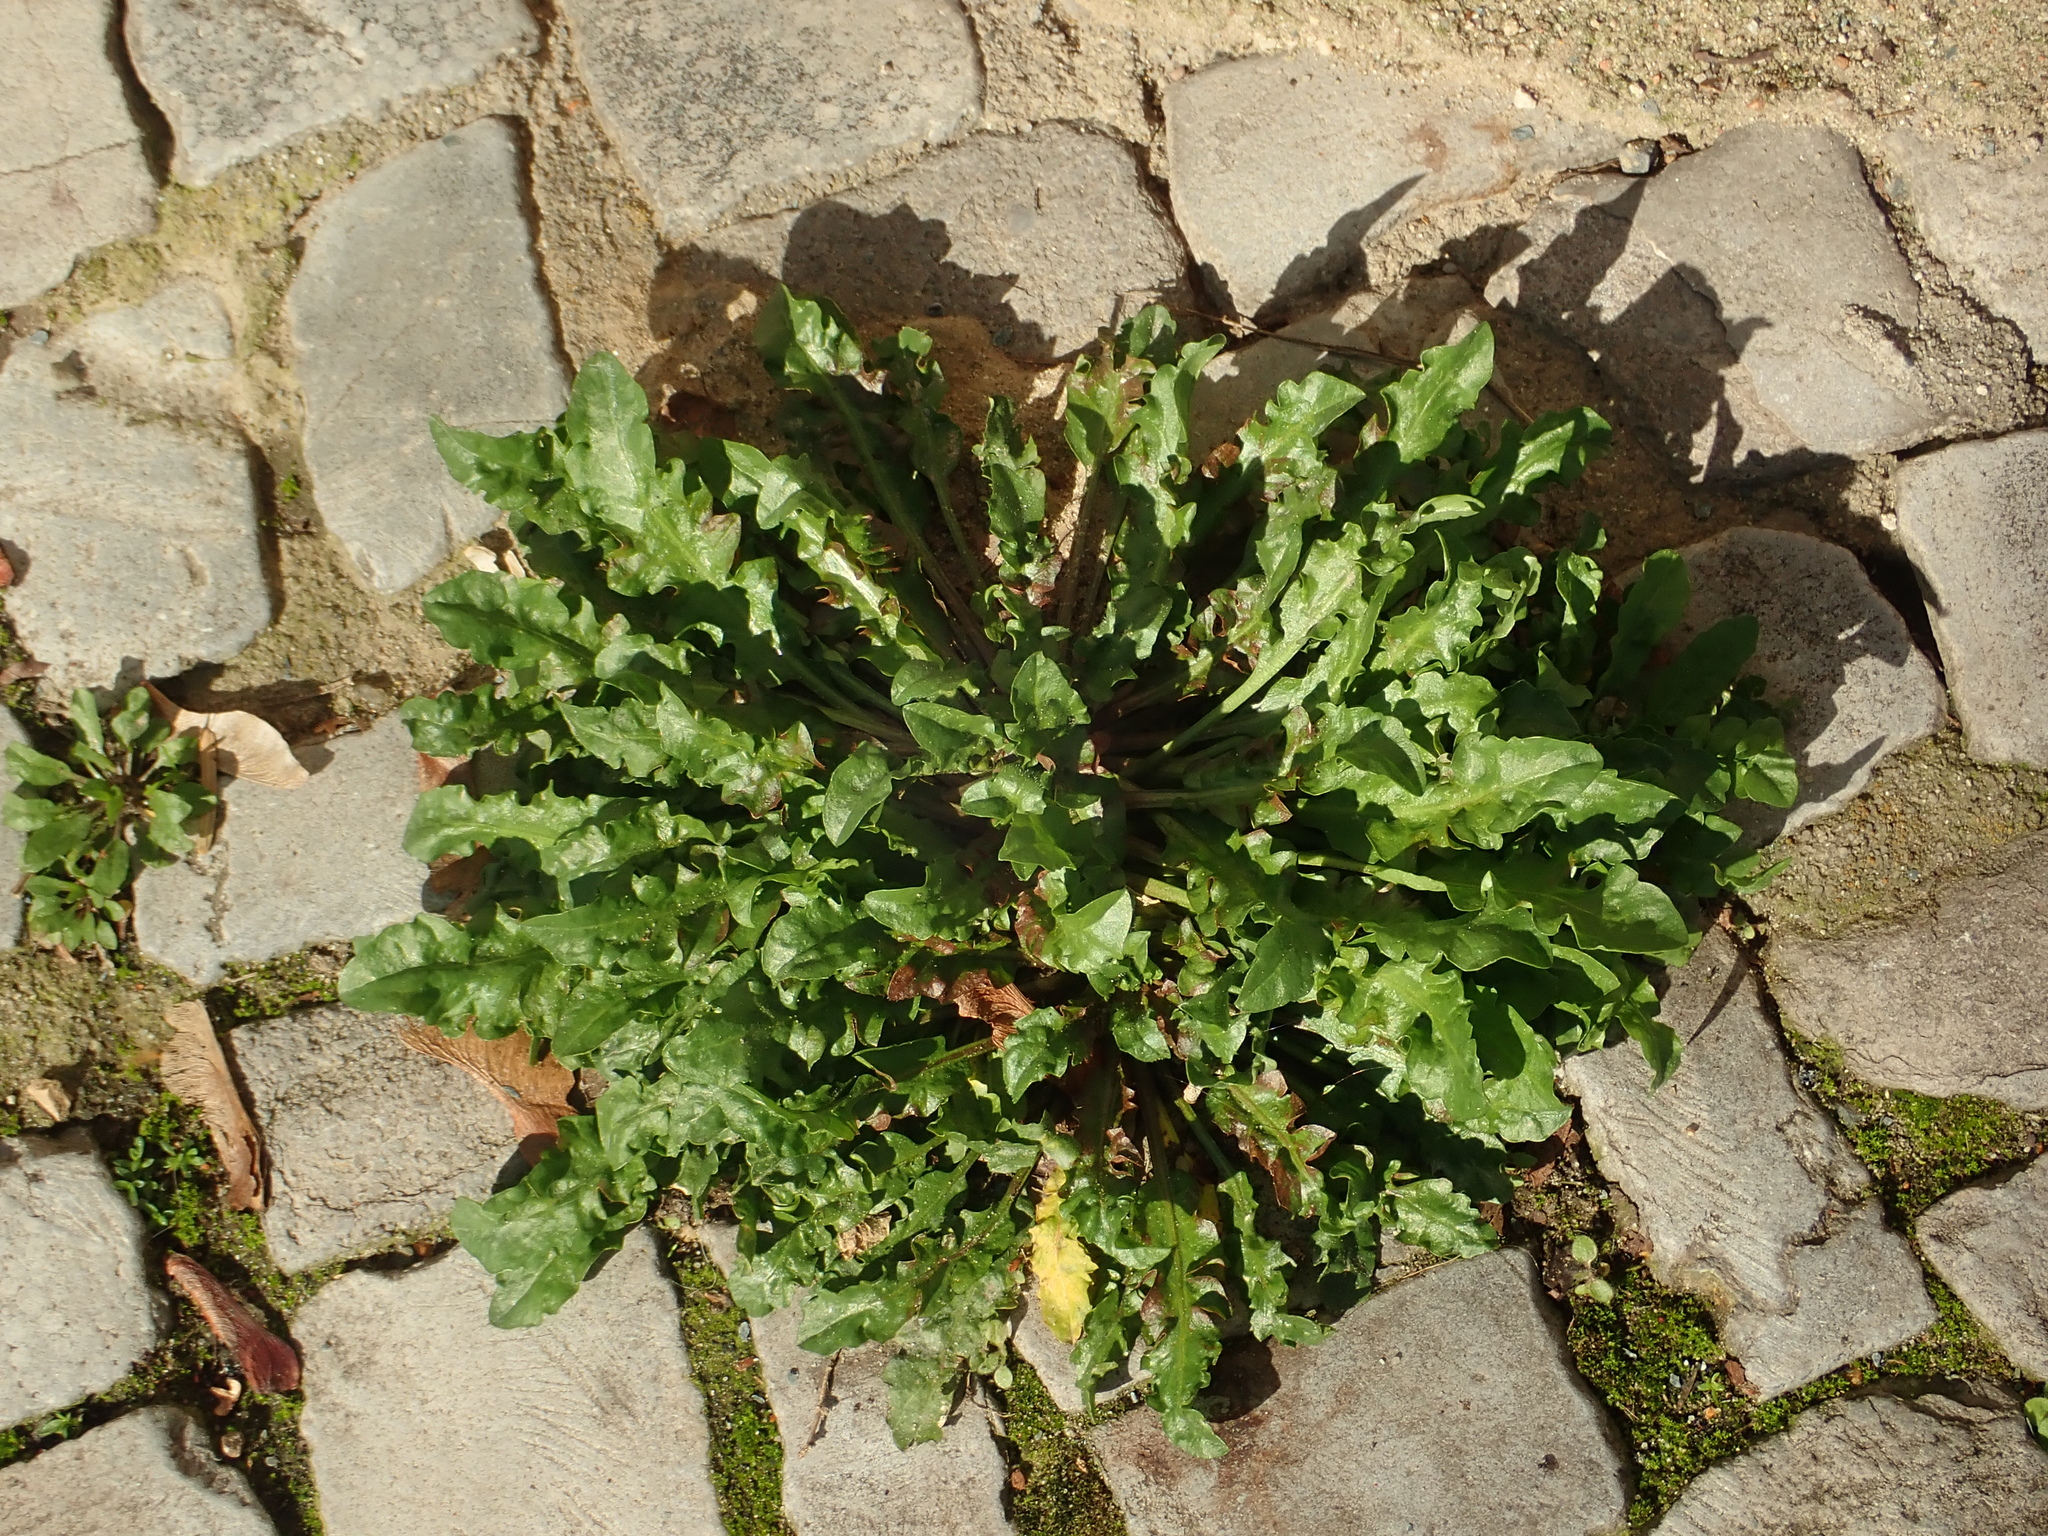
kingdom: Plantae
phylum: Tracheophyta
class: Magnoliopsida
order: Asterales
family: Asteraceae
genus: Taraxacum
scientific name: Taraxacum officinale
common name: Common dandelion
